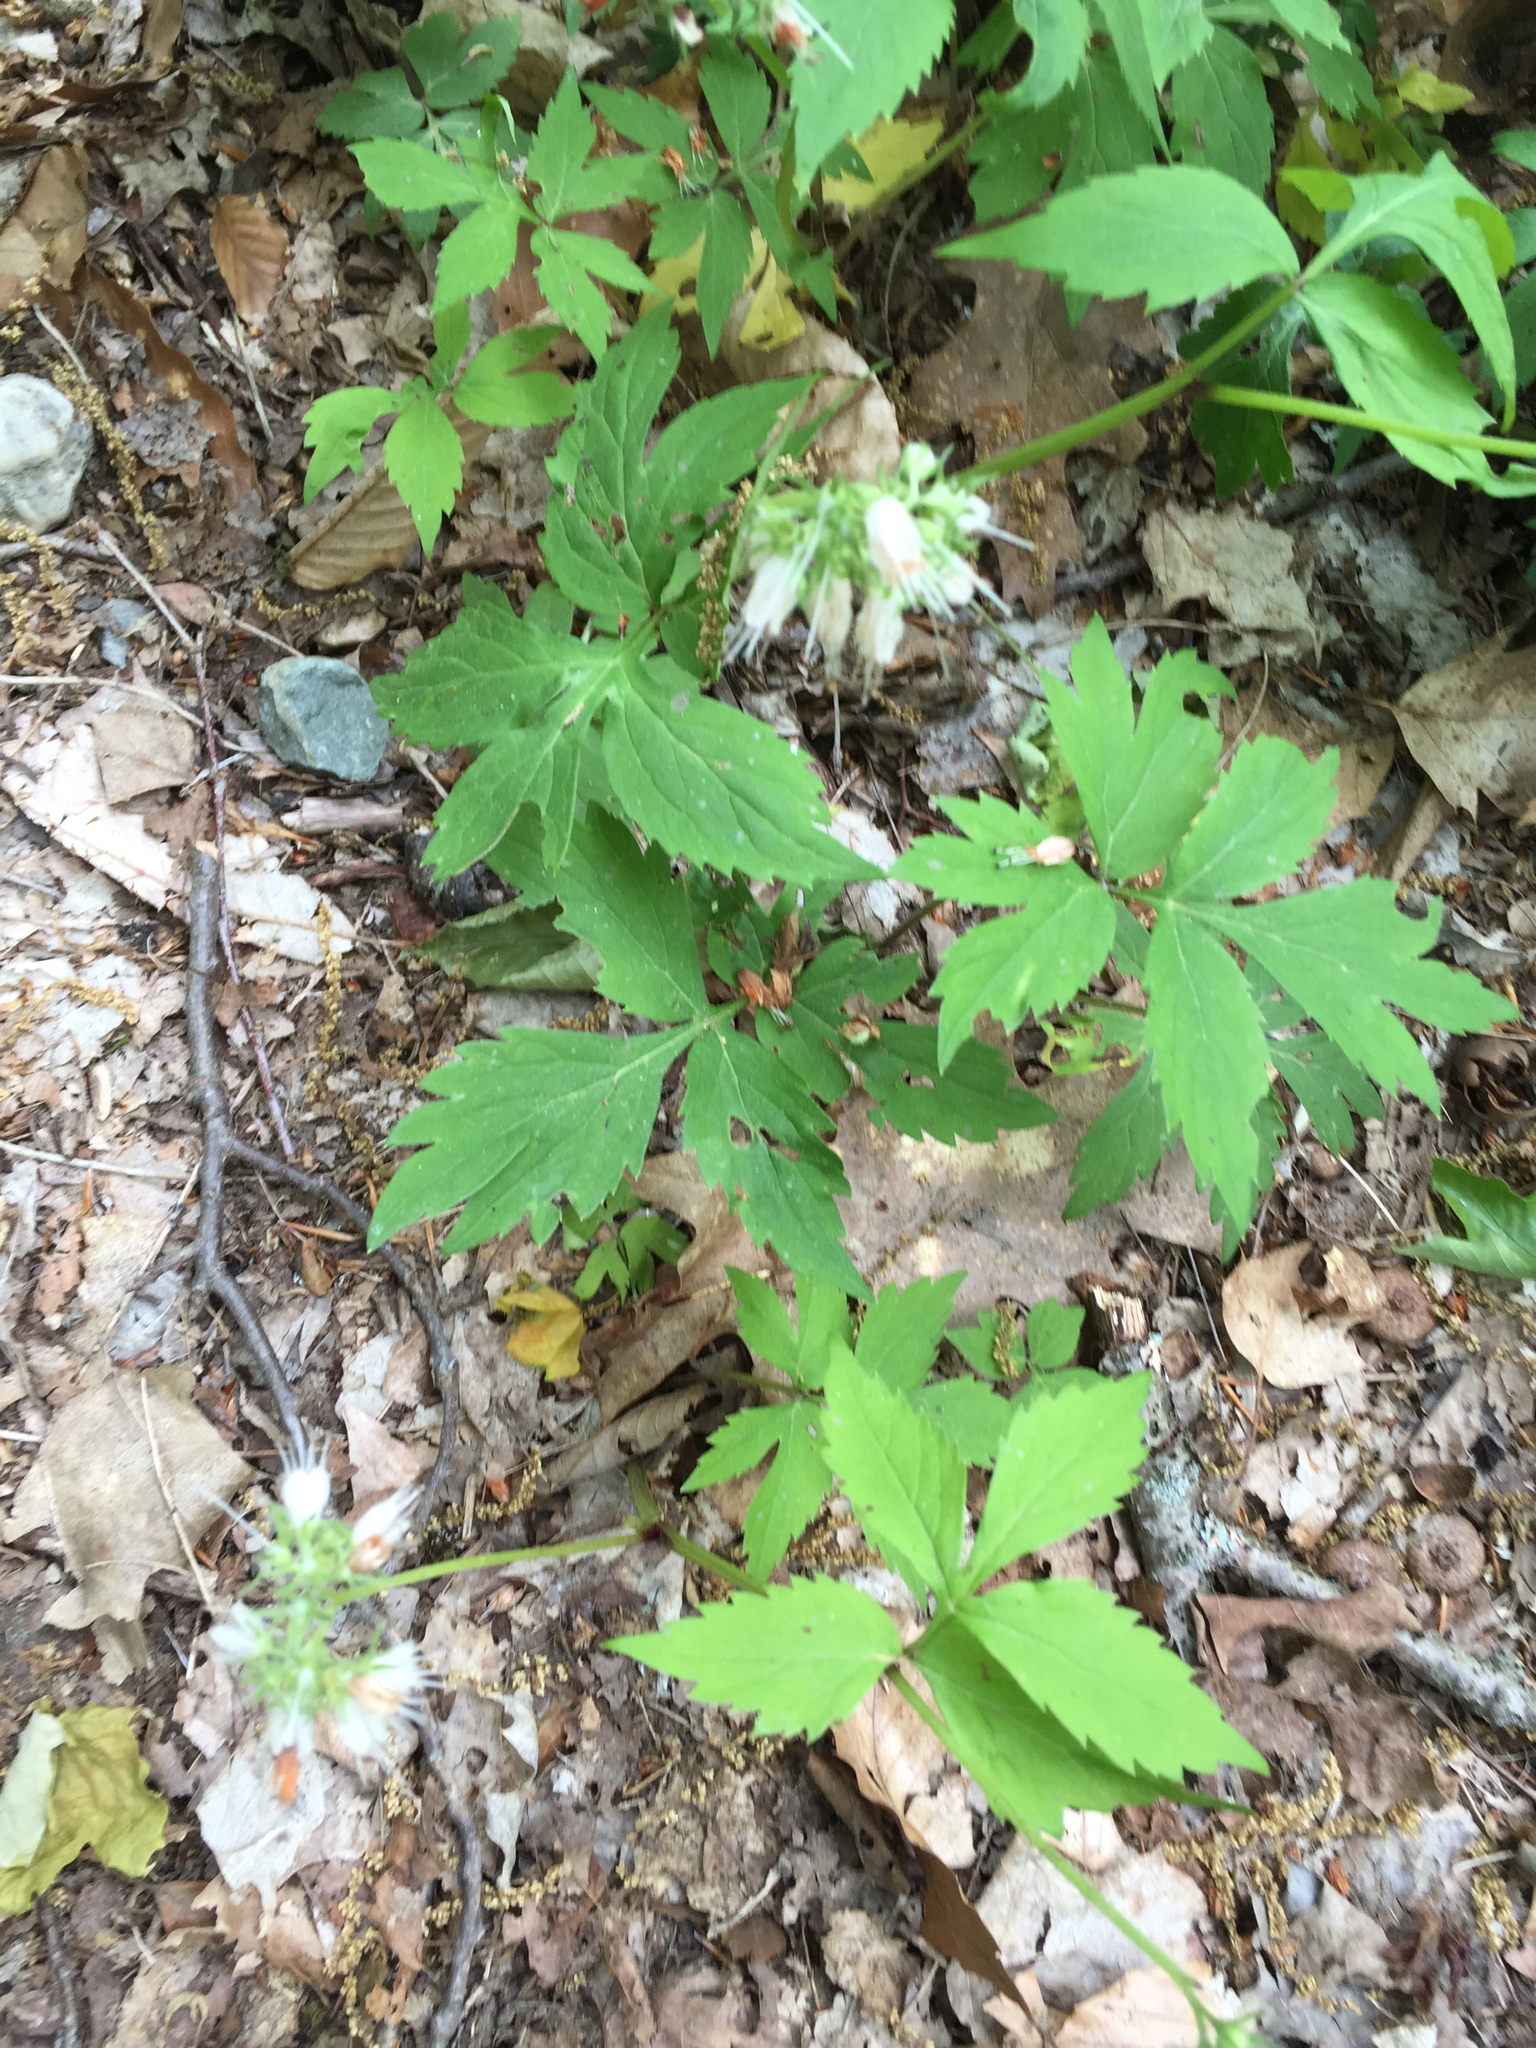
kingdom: Plantae
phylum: Tracheophyta
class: Magnoliopsida
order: Boraginales
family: Hydrophyllaceae
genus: Hydrophyllum
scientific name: Hydrophyllum virginianum
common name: Virginia waterleaf
